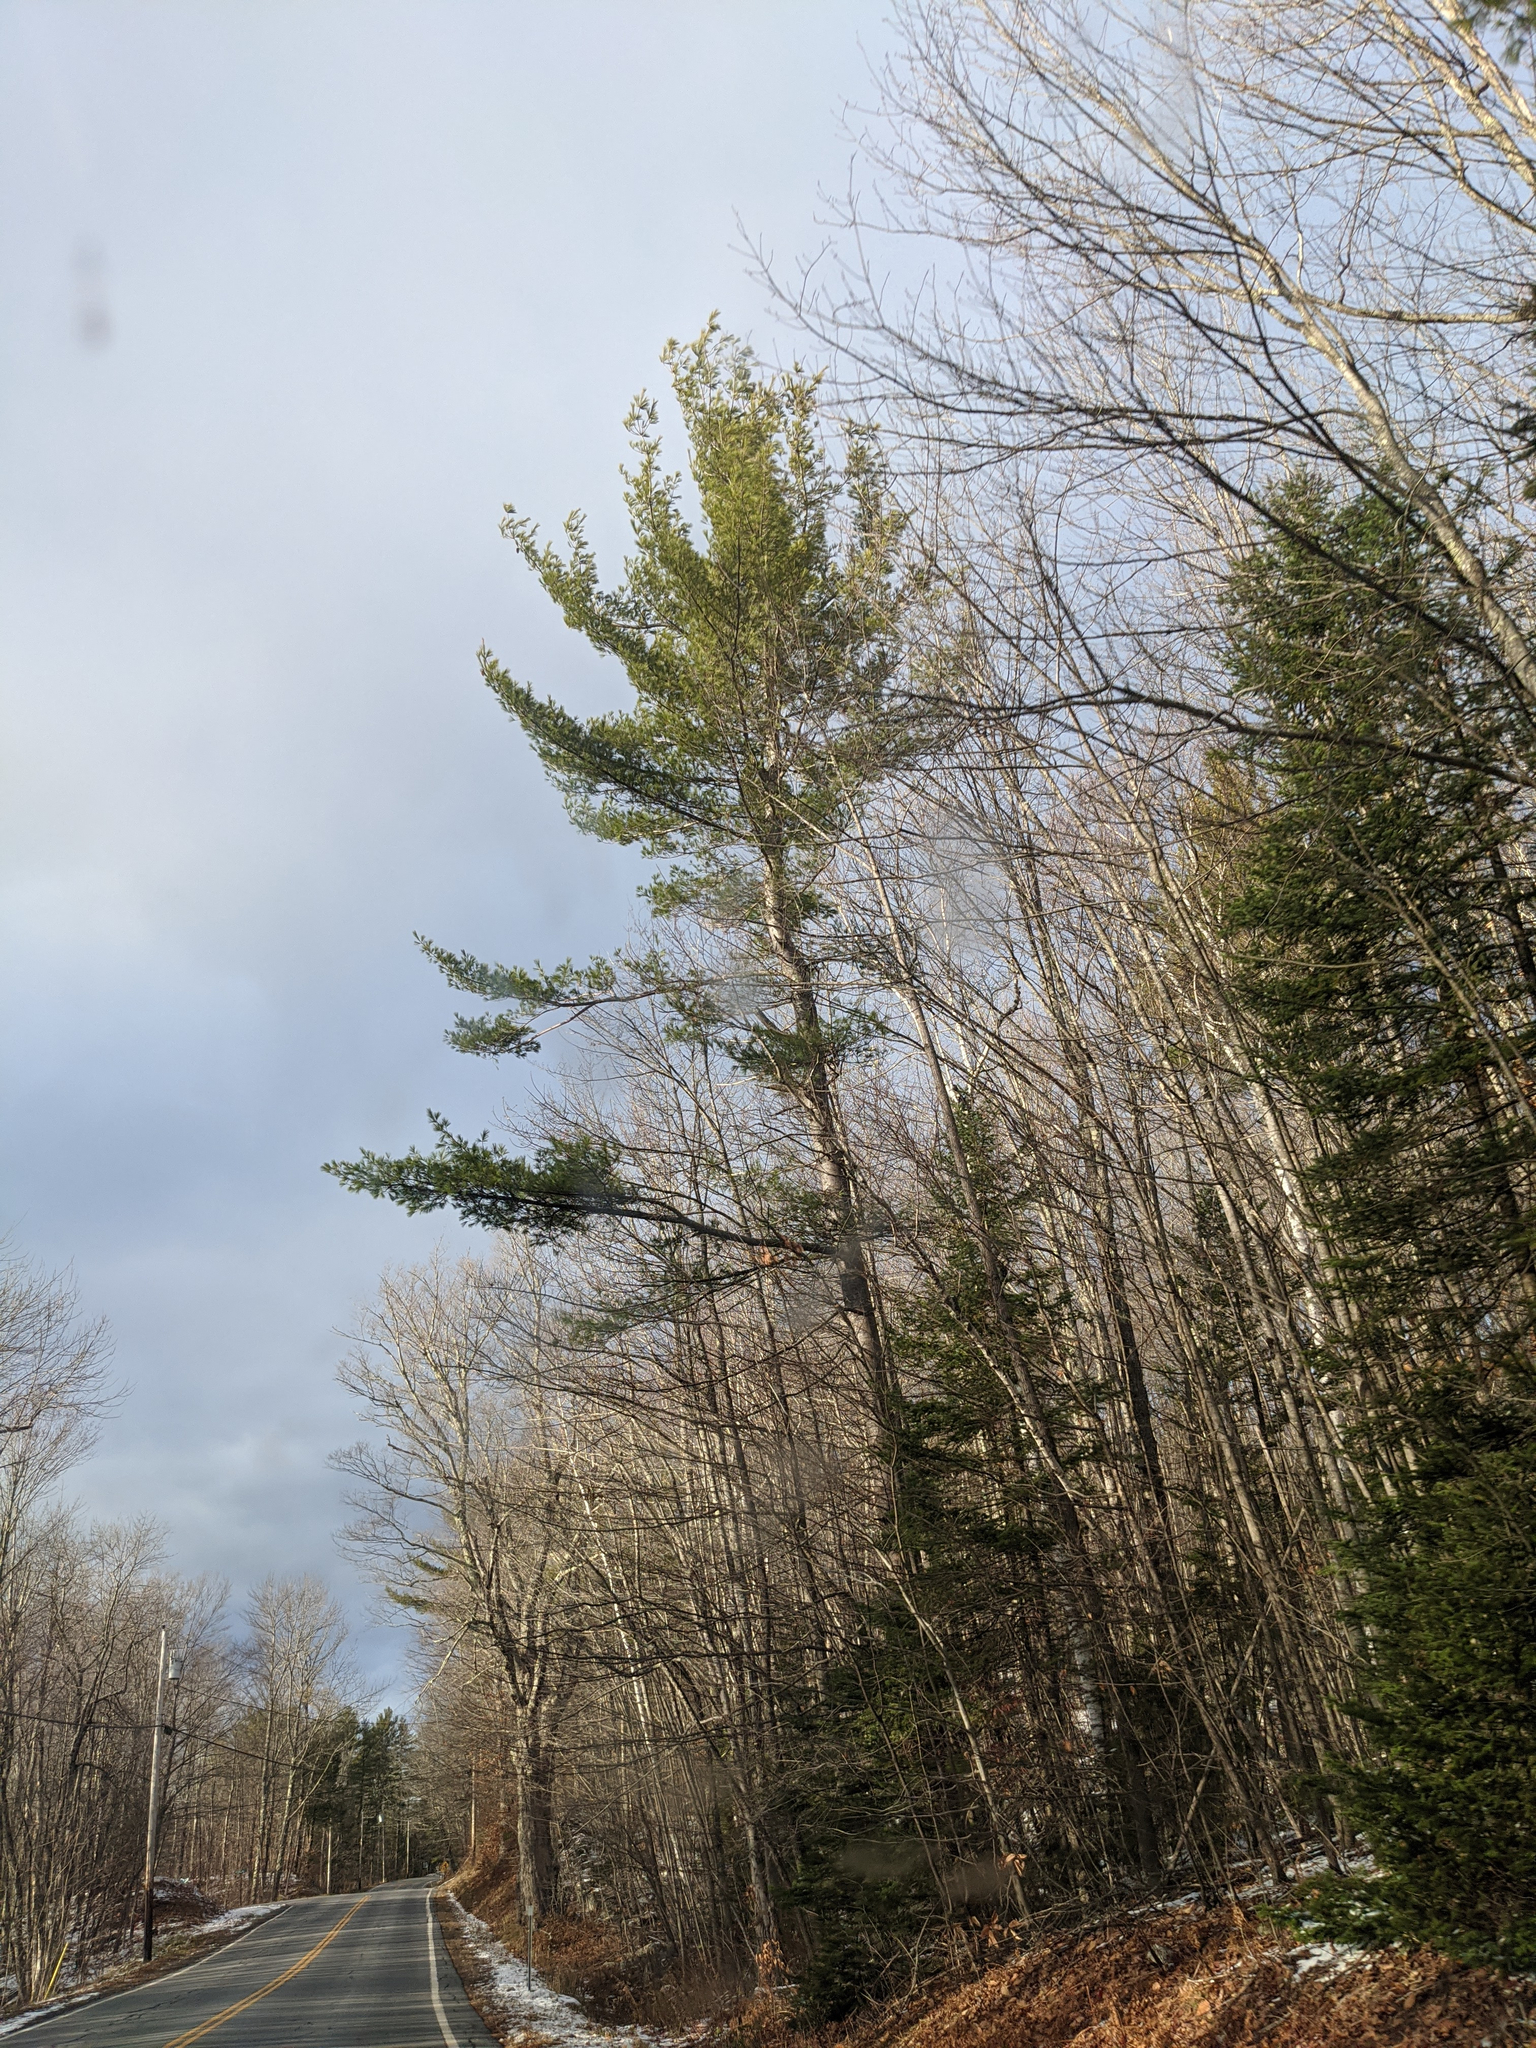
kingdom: Plantae
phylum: Tracheophyta
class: Pinopsida
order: Pinales
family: Pinaceae
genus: Pinus
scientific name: Pinus strobus
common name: Weymouth pine
